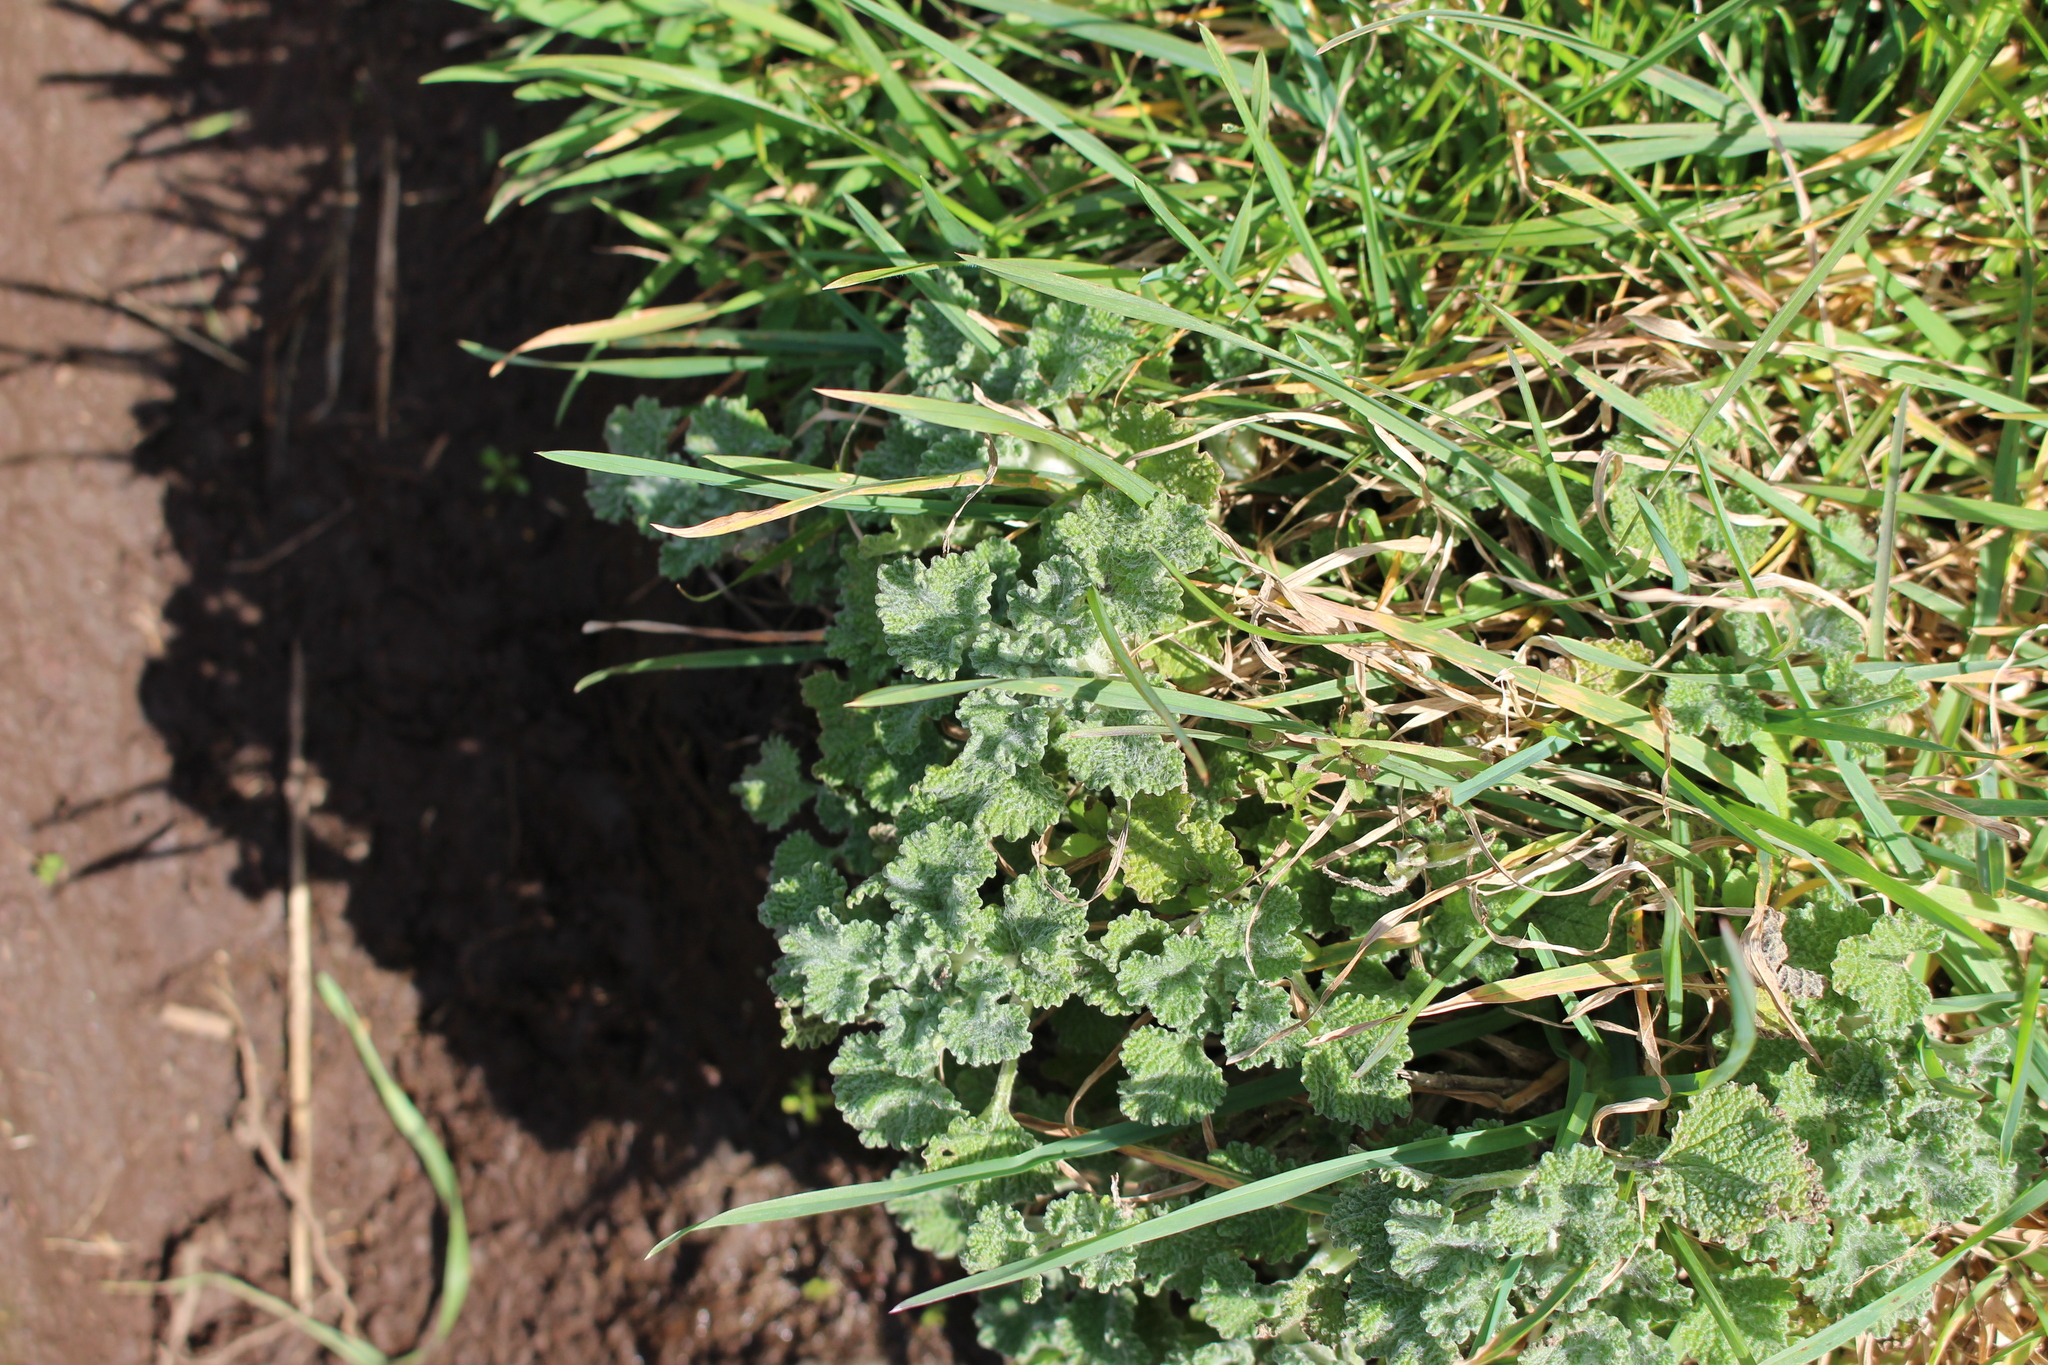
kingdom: Plantae
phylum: Tracheophyta
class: Magnoliopsida
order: Lamiales
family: Lamiaceae
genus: Marrubium
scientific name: Marrubium vulgare
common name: Horehound
